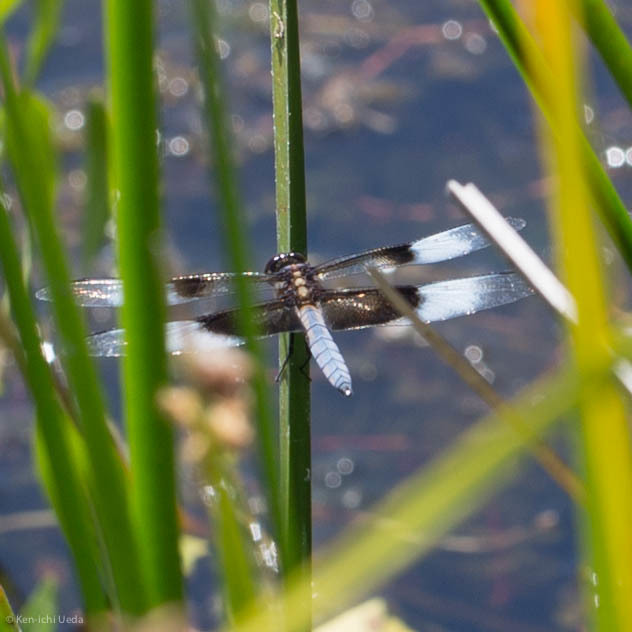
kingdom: Animalia
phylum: Arthropoda
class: Insecta
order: Odonata
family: Libellulidae
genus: Libellula
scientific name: Libellula luctuosa
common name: Widow skimmer
